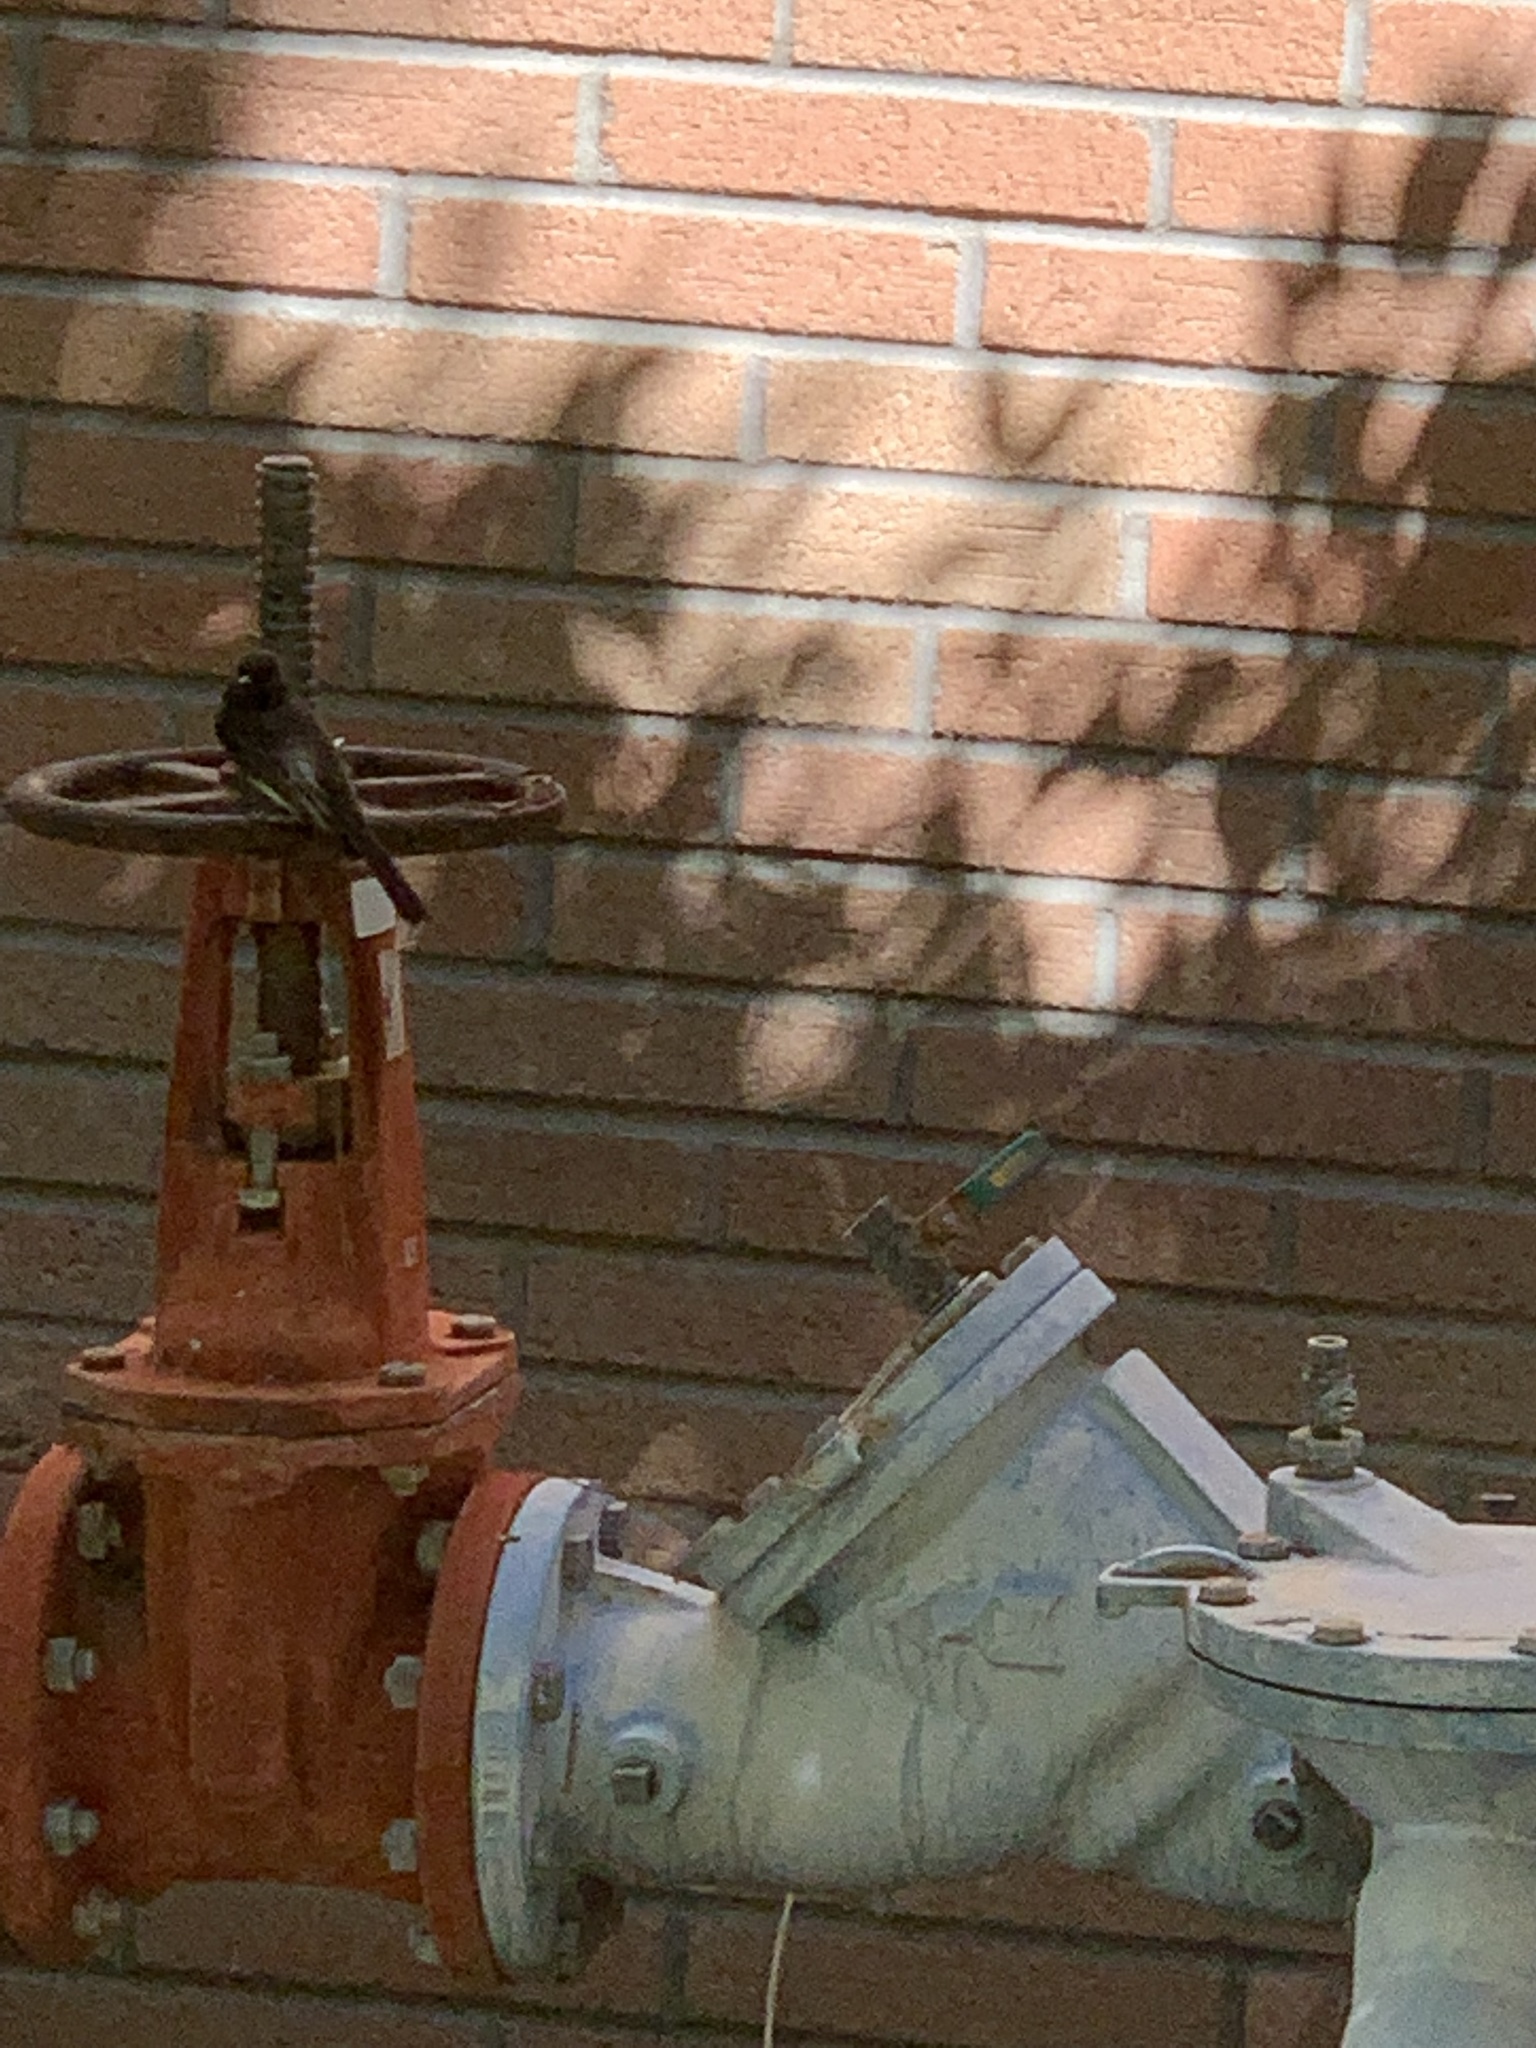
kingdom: Animalia
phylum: Chordata
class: Aves
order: Passeriformes
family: Tyrannidae
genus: Sayornis
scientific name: Sayornis nigricans
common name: Black phoebe
